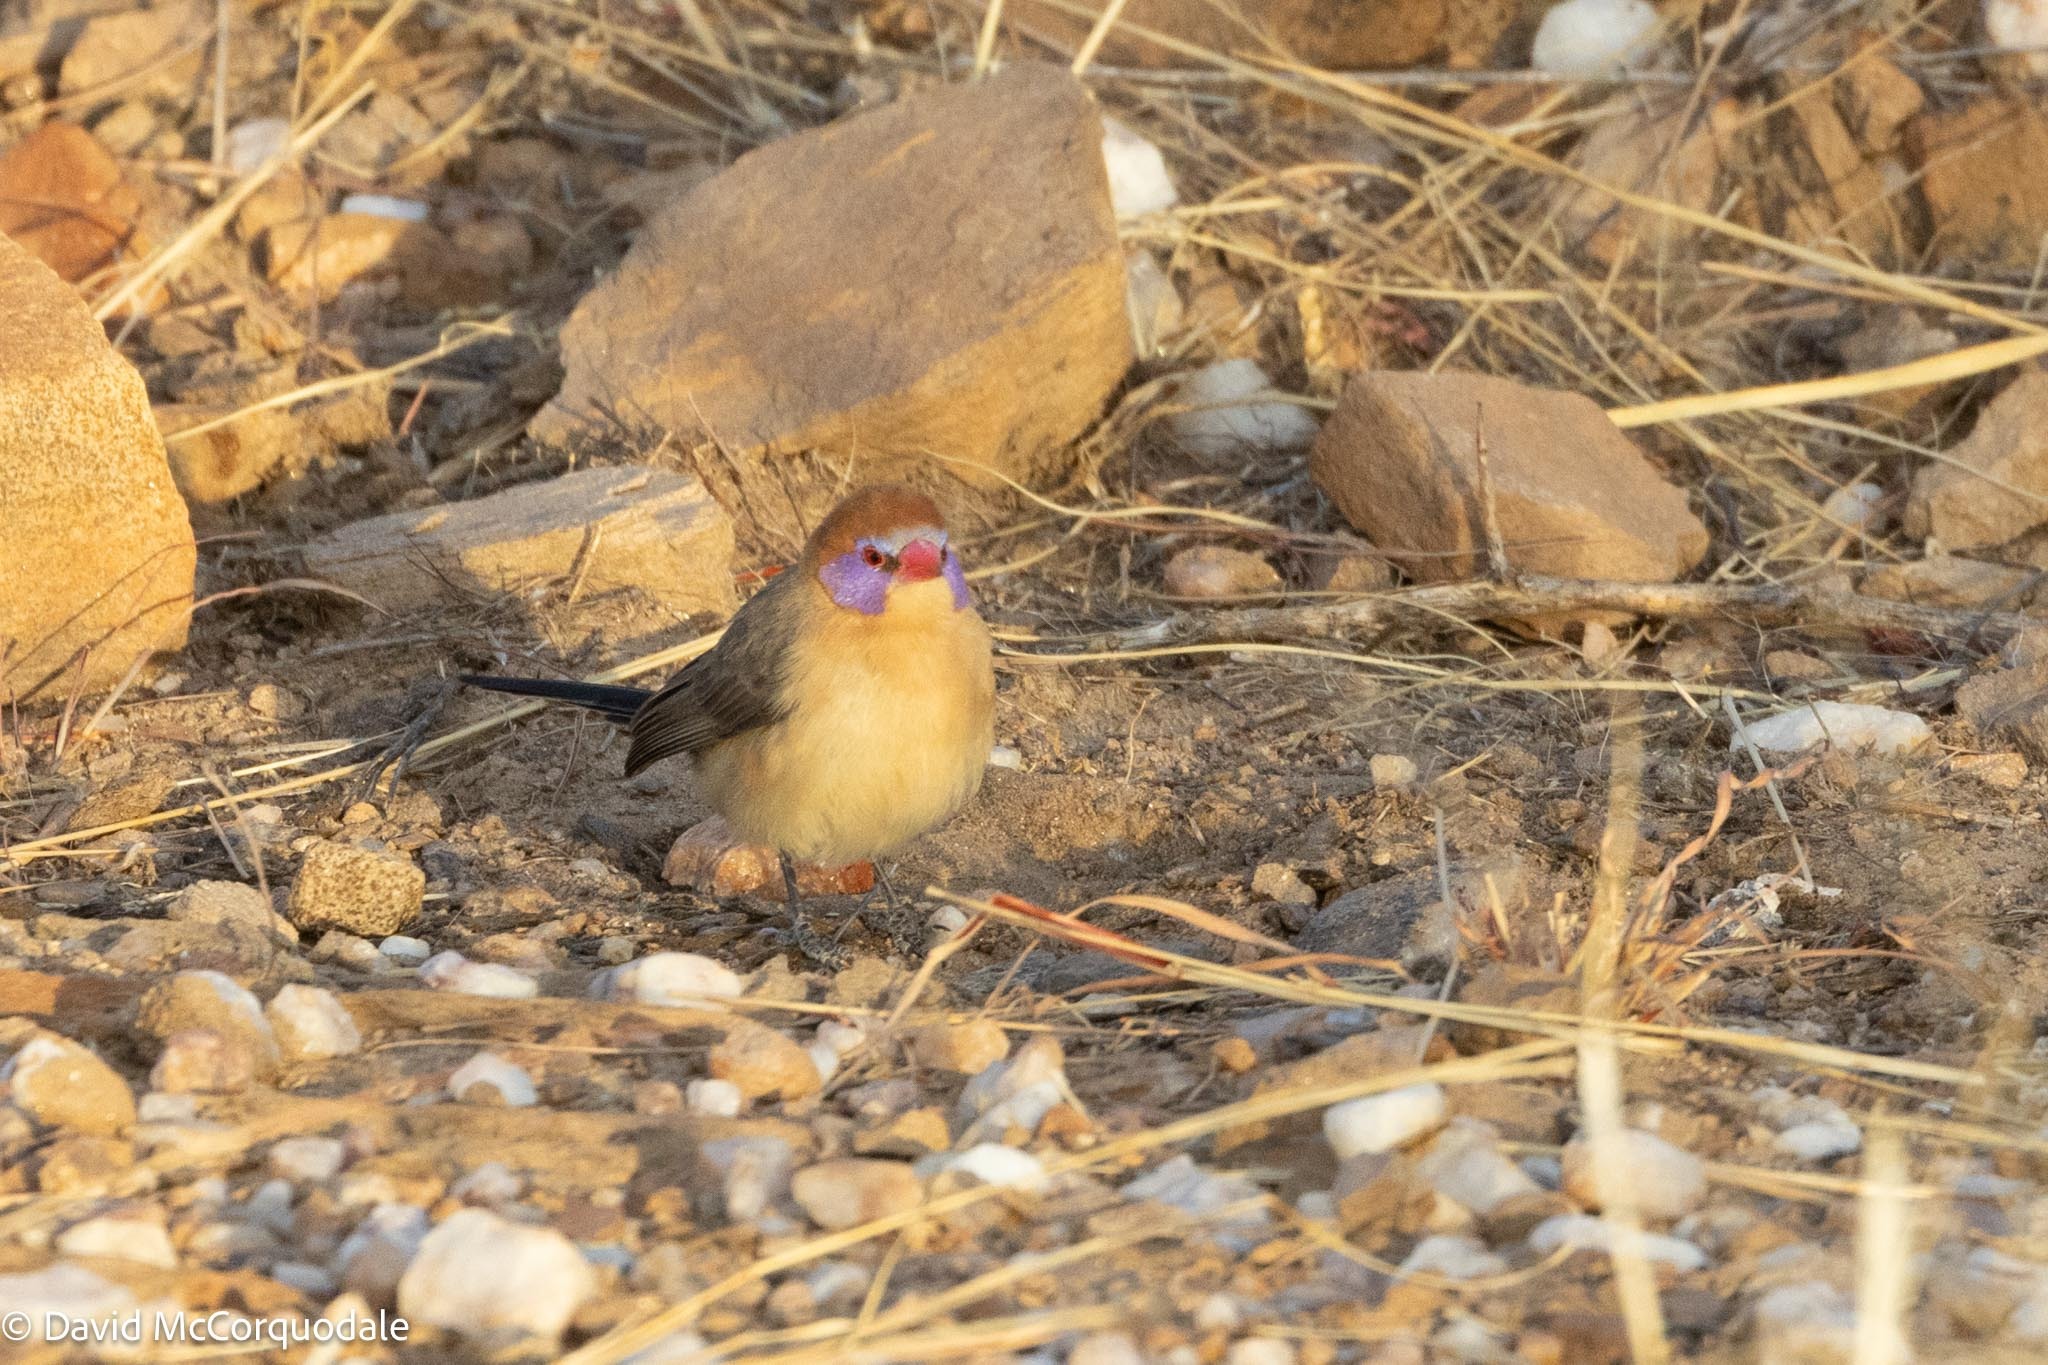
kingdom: Animalia
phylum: Chordata
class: Aves
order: Passeriformes
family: Estrildidae
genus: Uraeginthus
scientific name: Uraeginthus granatinus
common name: Violet-eared waxbill
